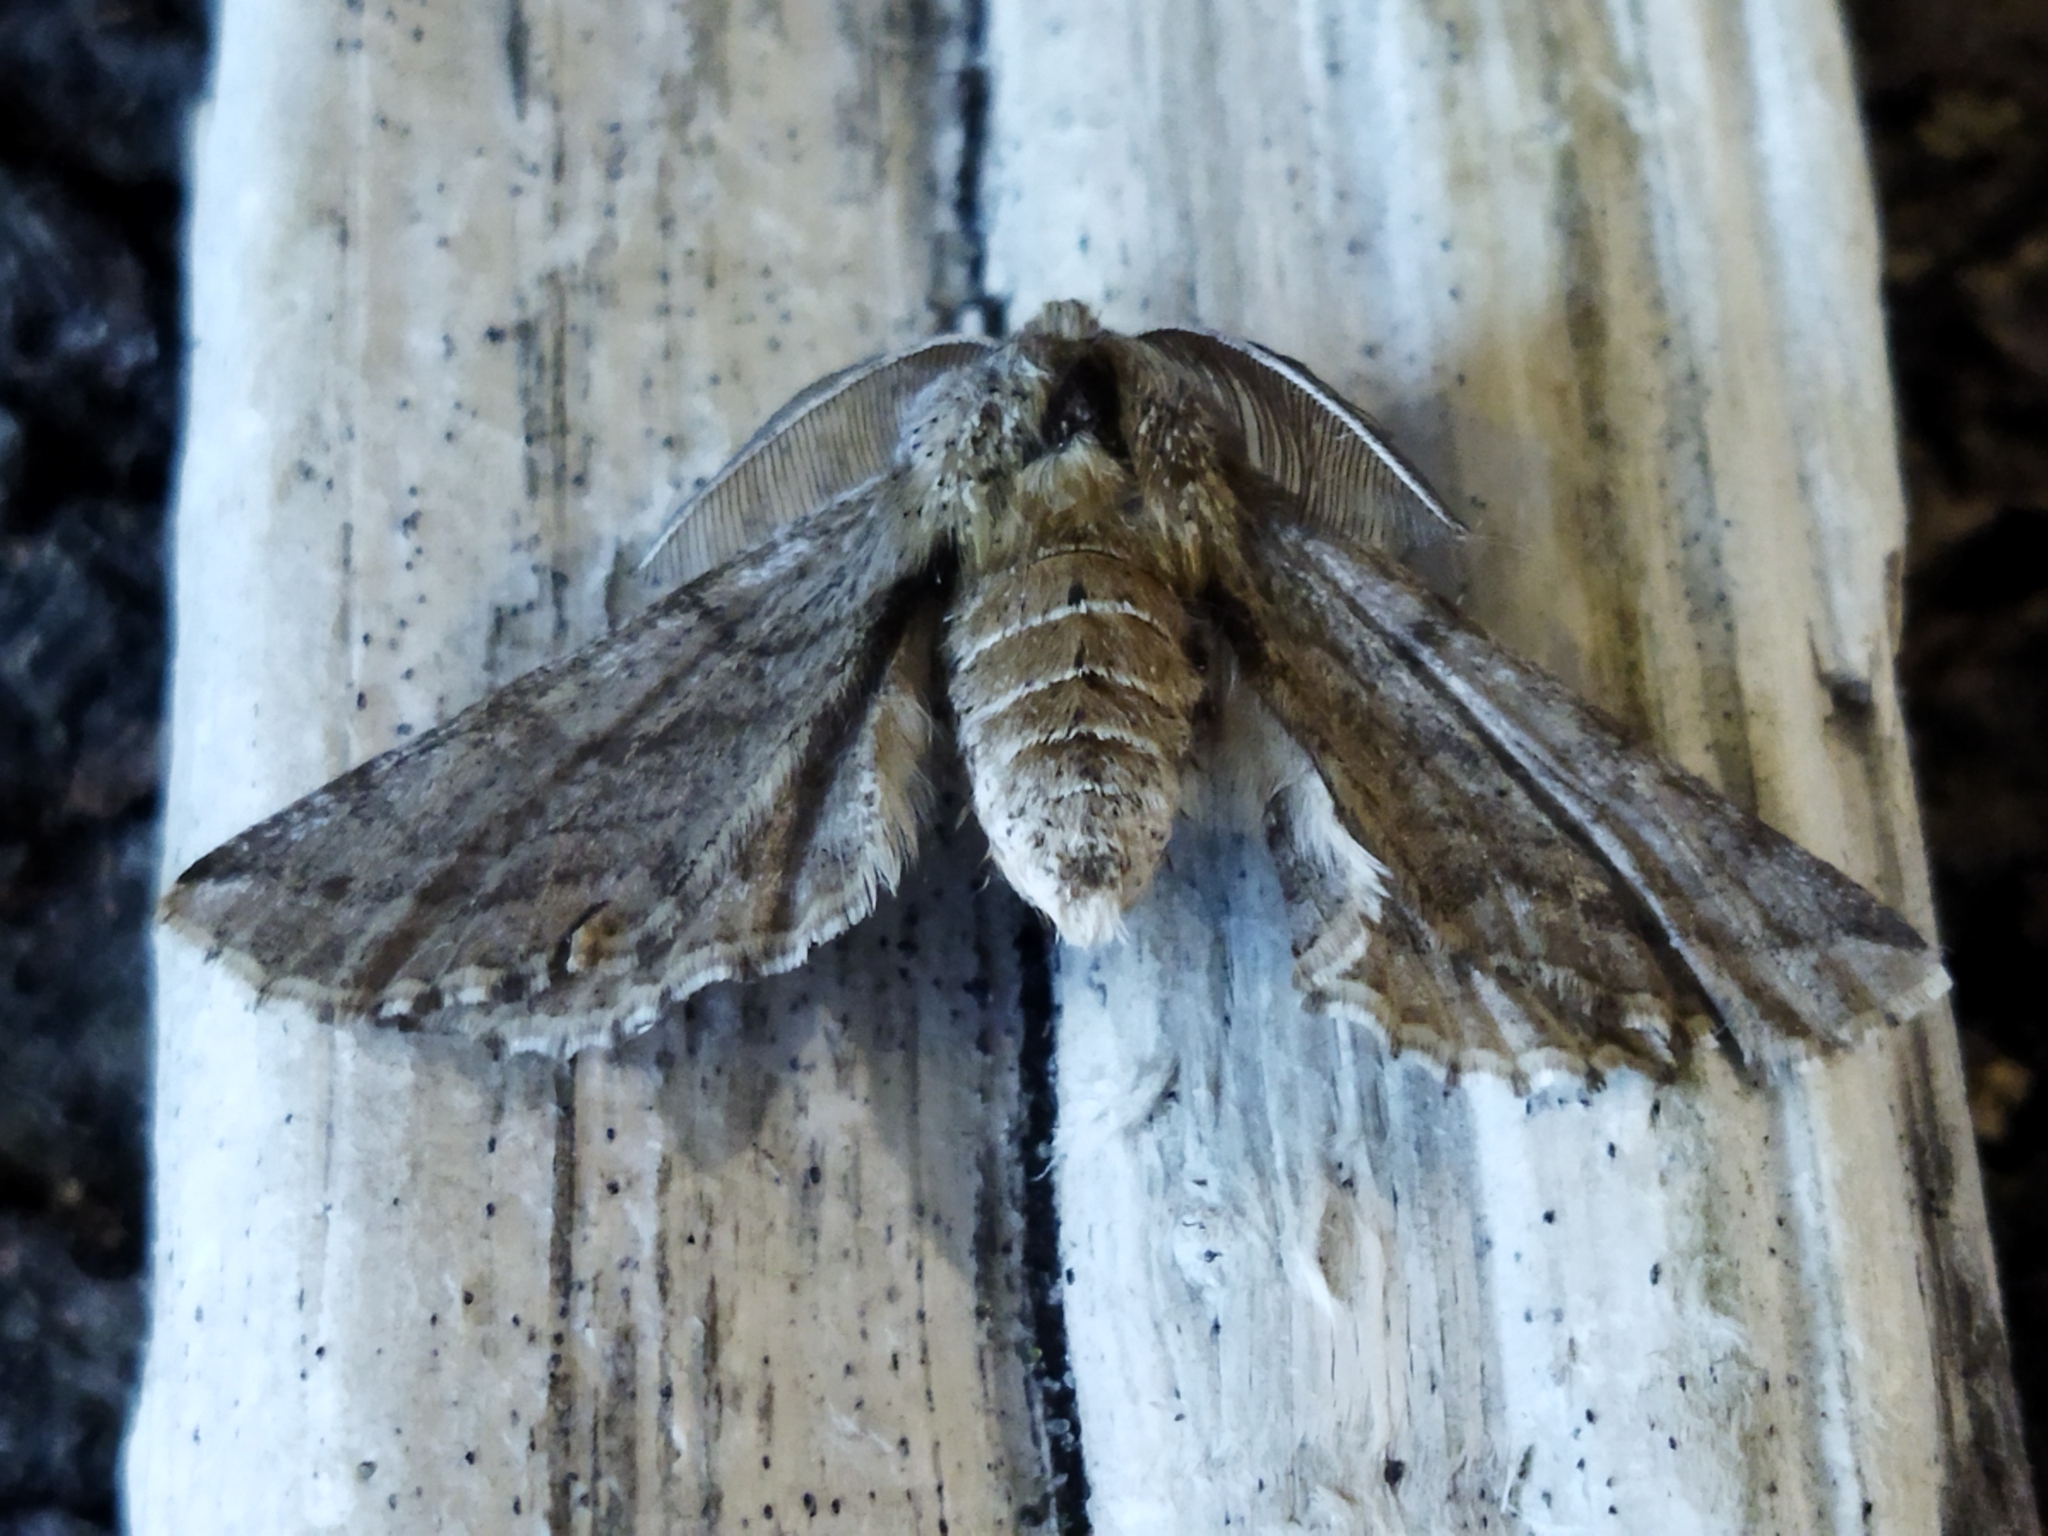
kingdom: Animalia
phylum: Arthropoda
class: Insecta
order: Lepidoptera
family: Geometridae
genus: Apochima
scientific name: Apochima flabellaria
